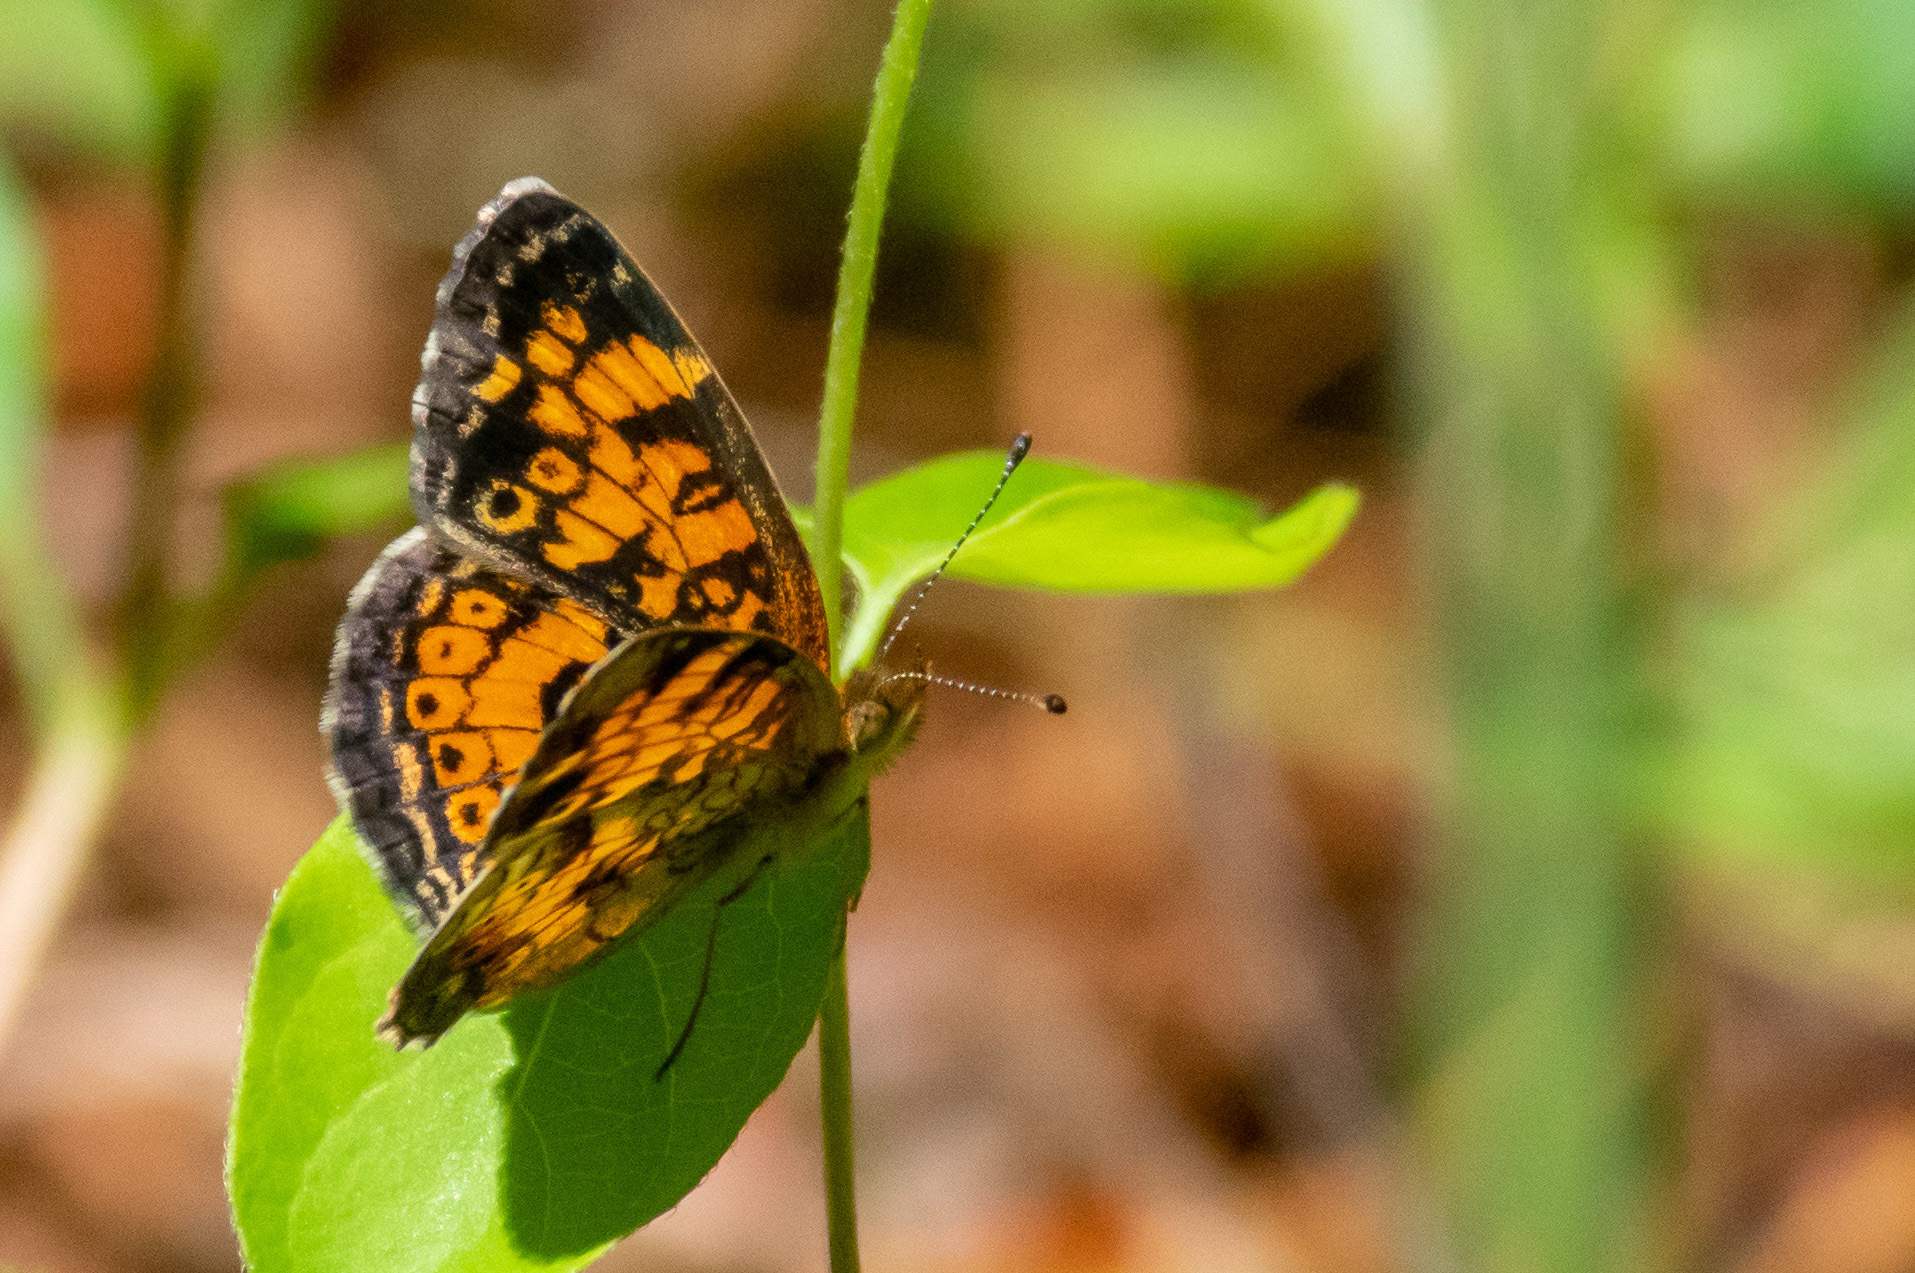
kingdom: Animalia
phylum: Arthropoda
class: Insecta
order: Lepidoptera
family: Nymphalidae
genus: Phyciodes
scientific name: Phyciodes tharos
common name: Pearl crescent
